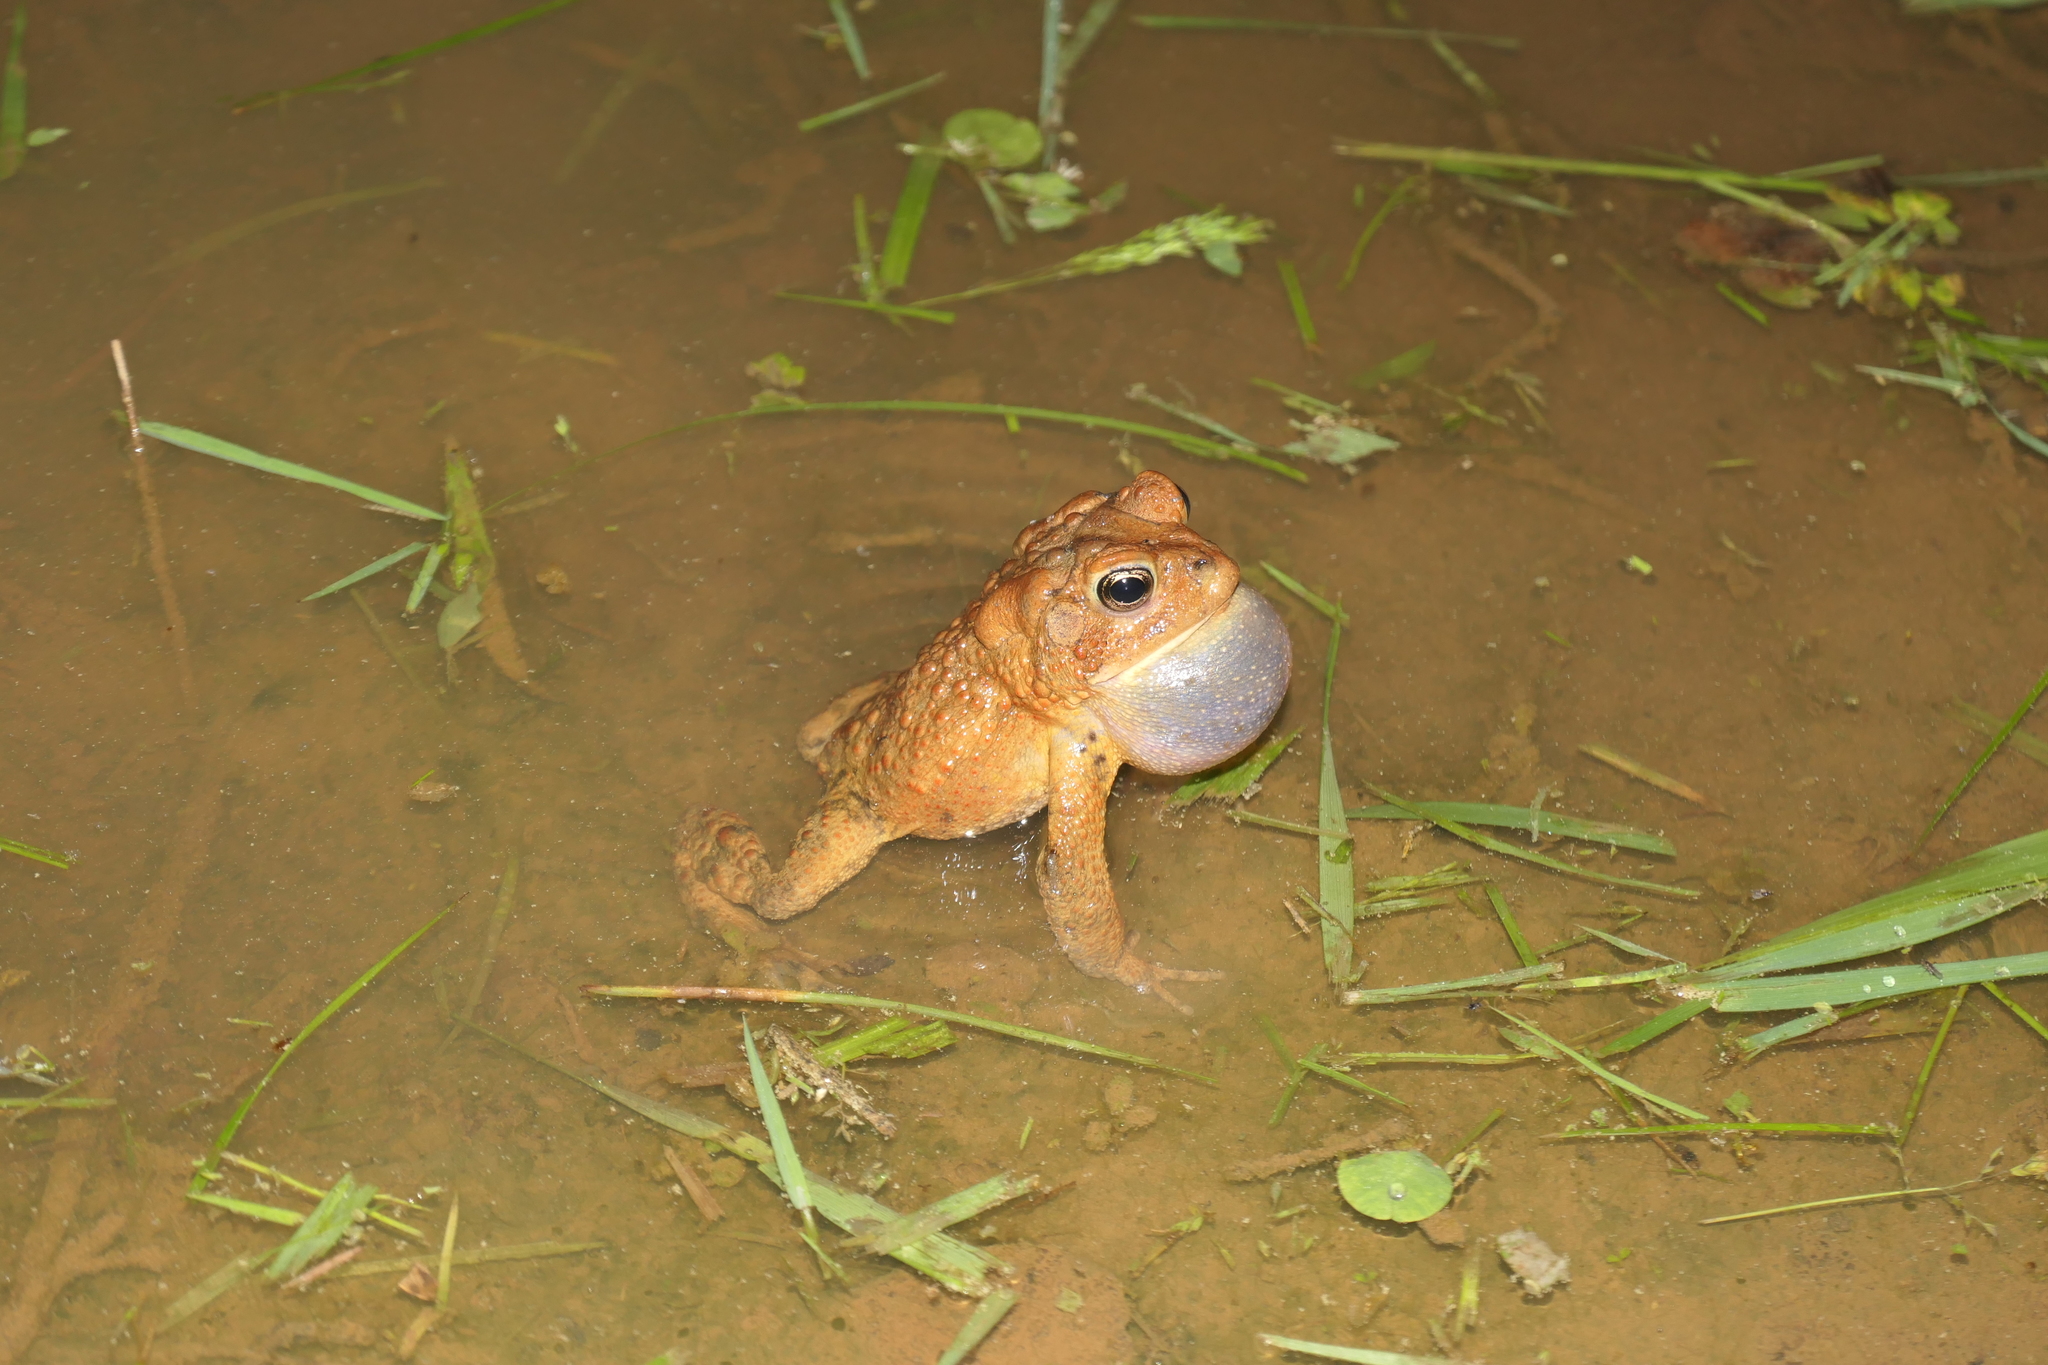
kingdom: Animalia
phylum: Chordata
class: Amphibia
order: Anura
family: Bufonidae
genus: Anaxyrus
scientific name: Anaxyrus americanus
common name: American toad
